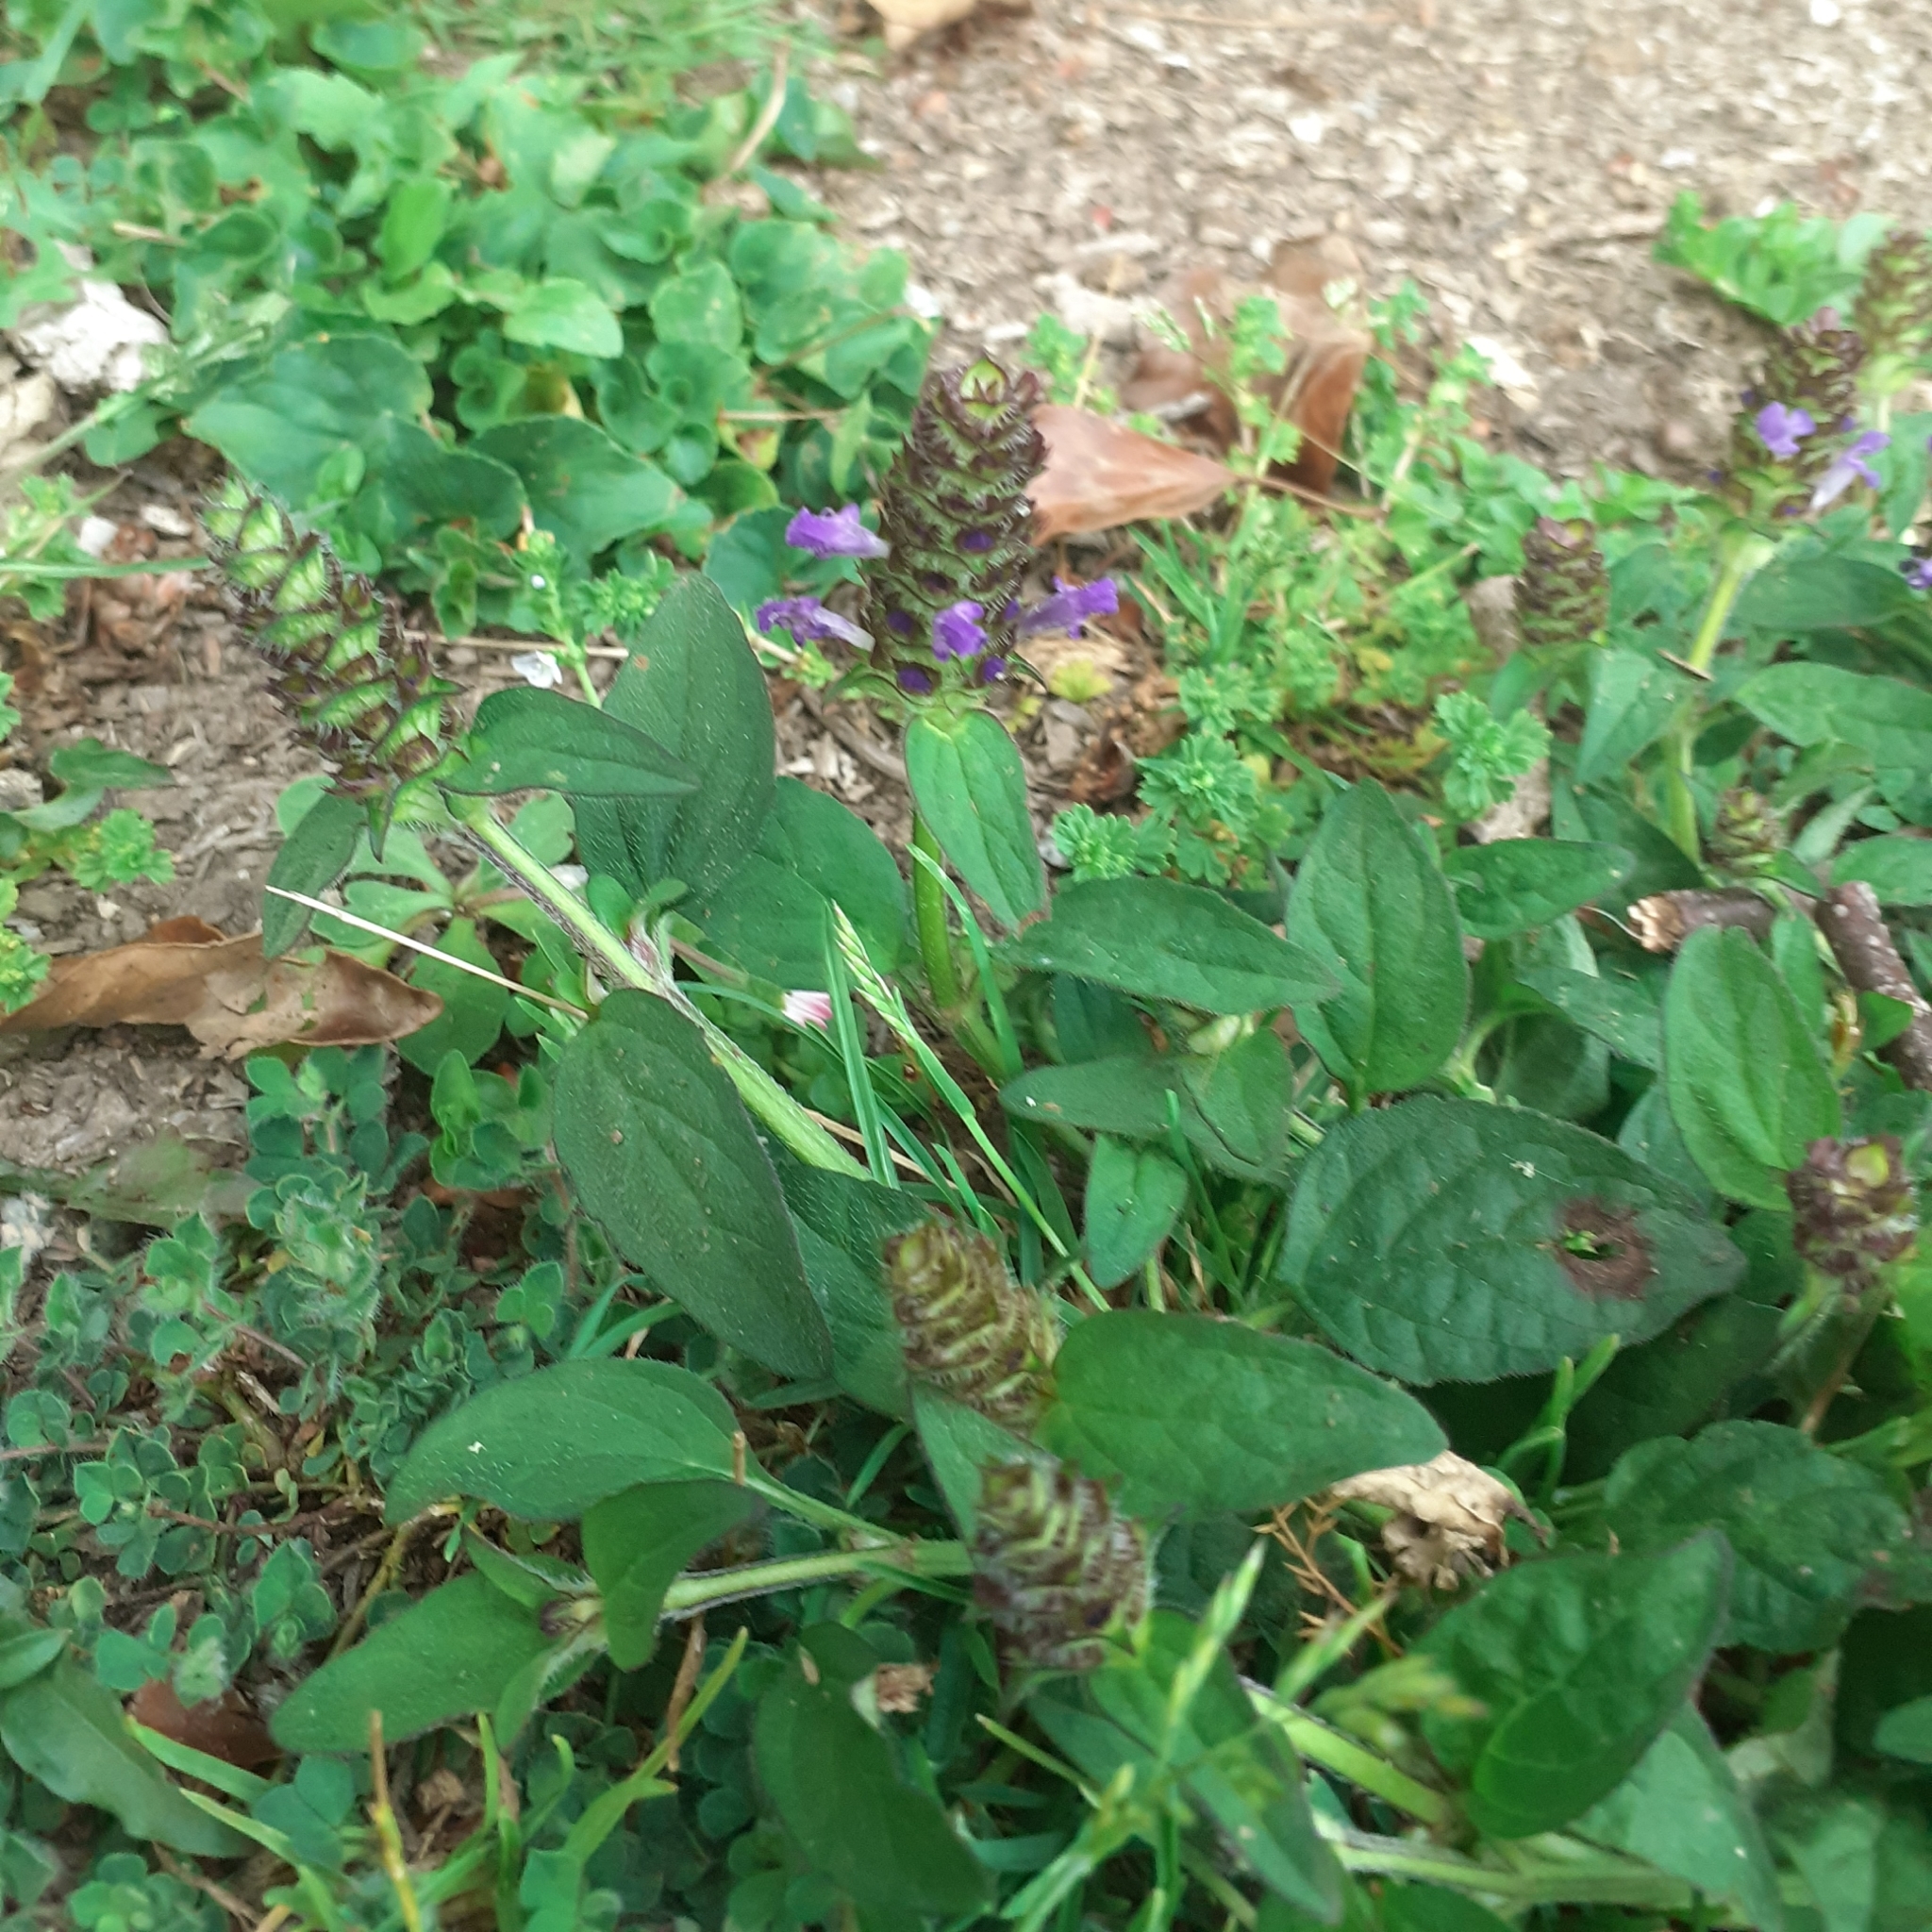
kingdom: Plantae
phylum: Tracheophyta
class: Magnoliopsida
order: Lamiales
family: Lamiaceae
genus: Prunella
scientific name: Prunella vulgaris
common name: Heal-all
